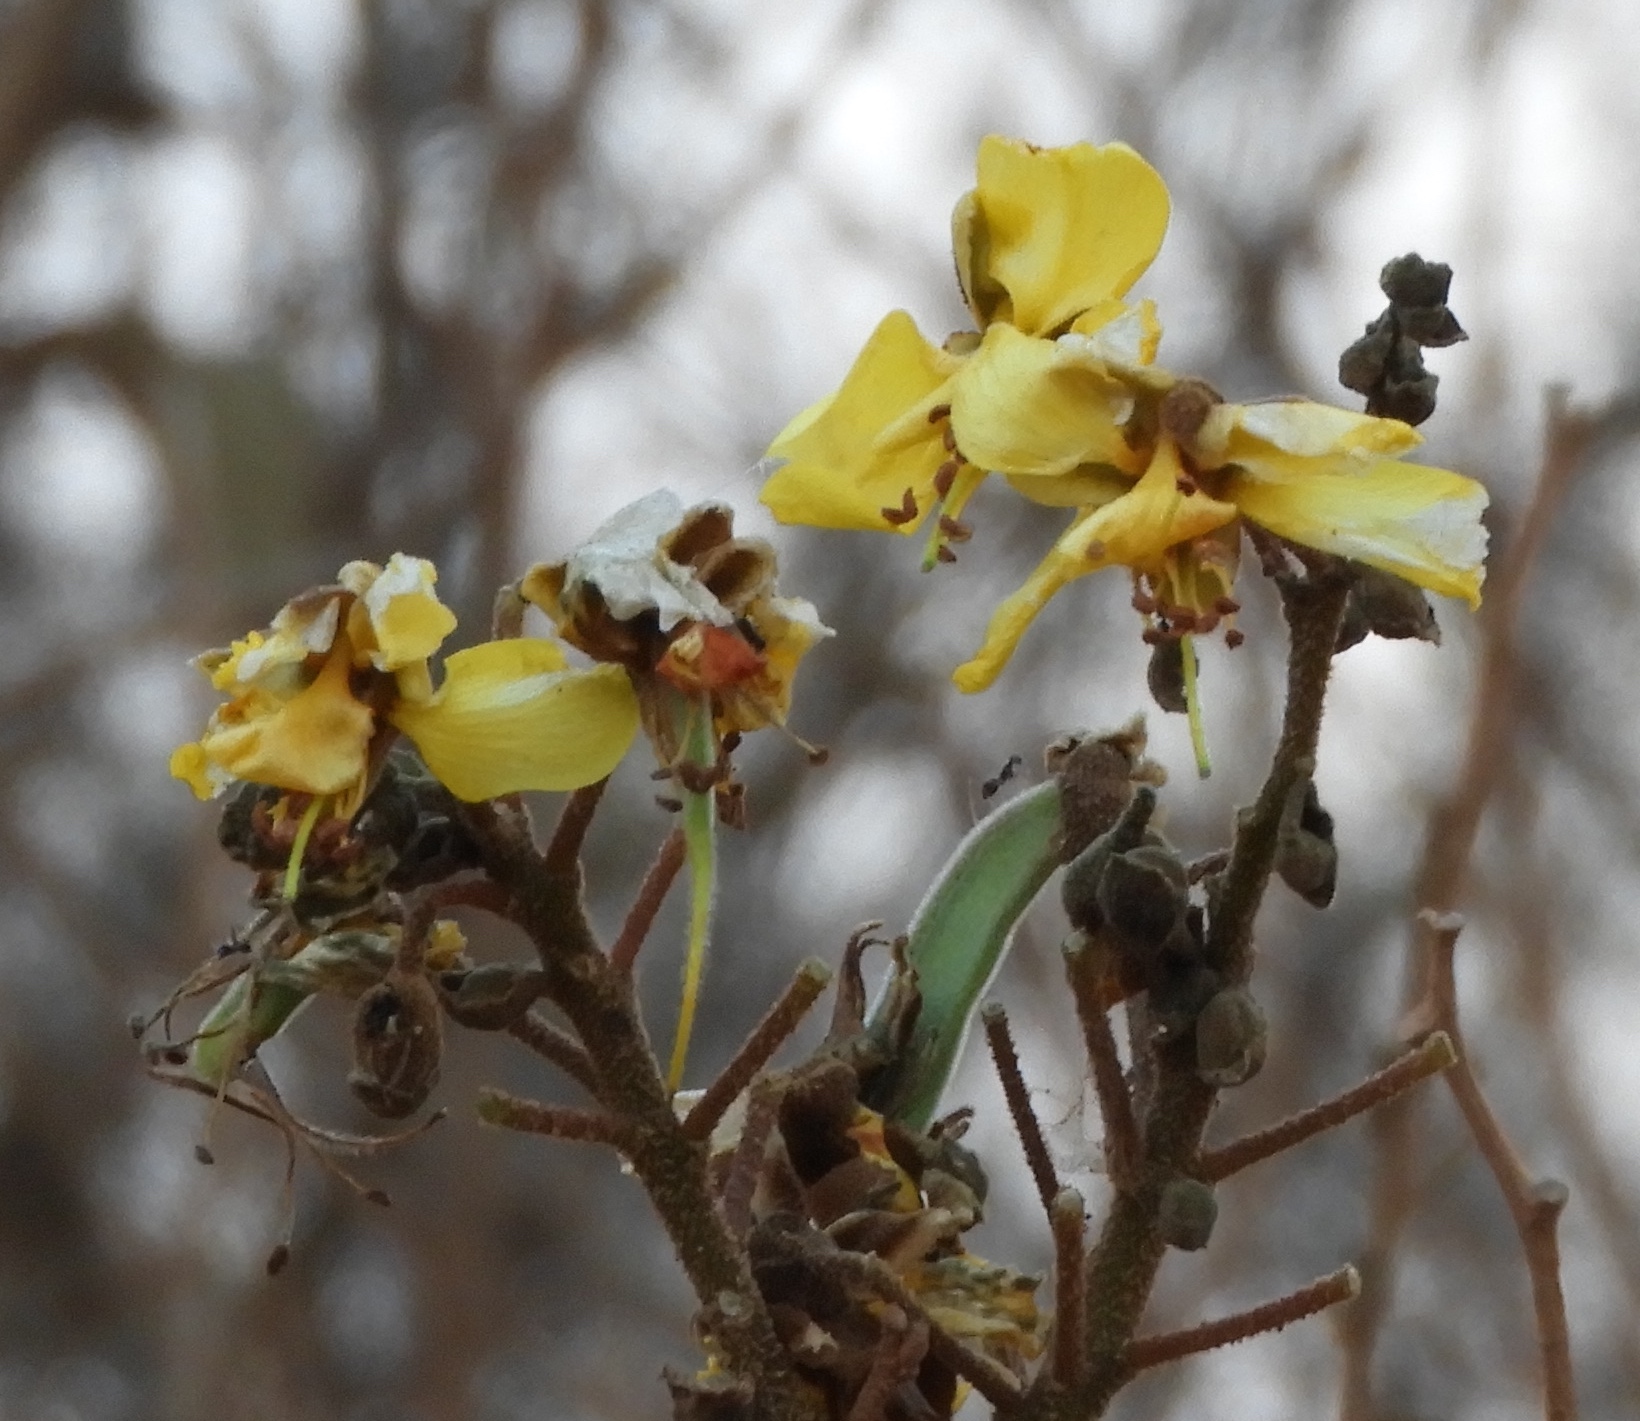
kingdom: Plantae
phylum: Tracheophyta
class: Magnoliopsida
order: Fabales
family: Fabaceae
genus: Erythrostemon
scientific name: Erythrostemon palmeri
